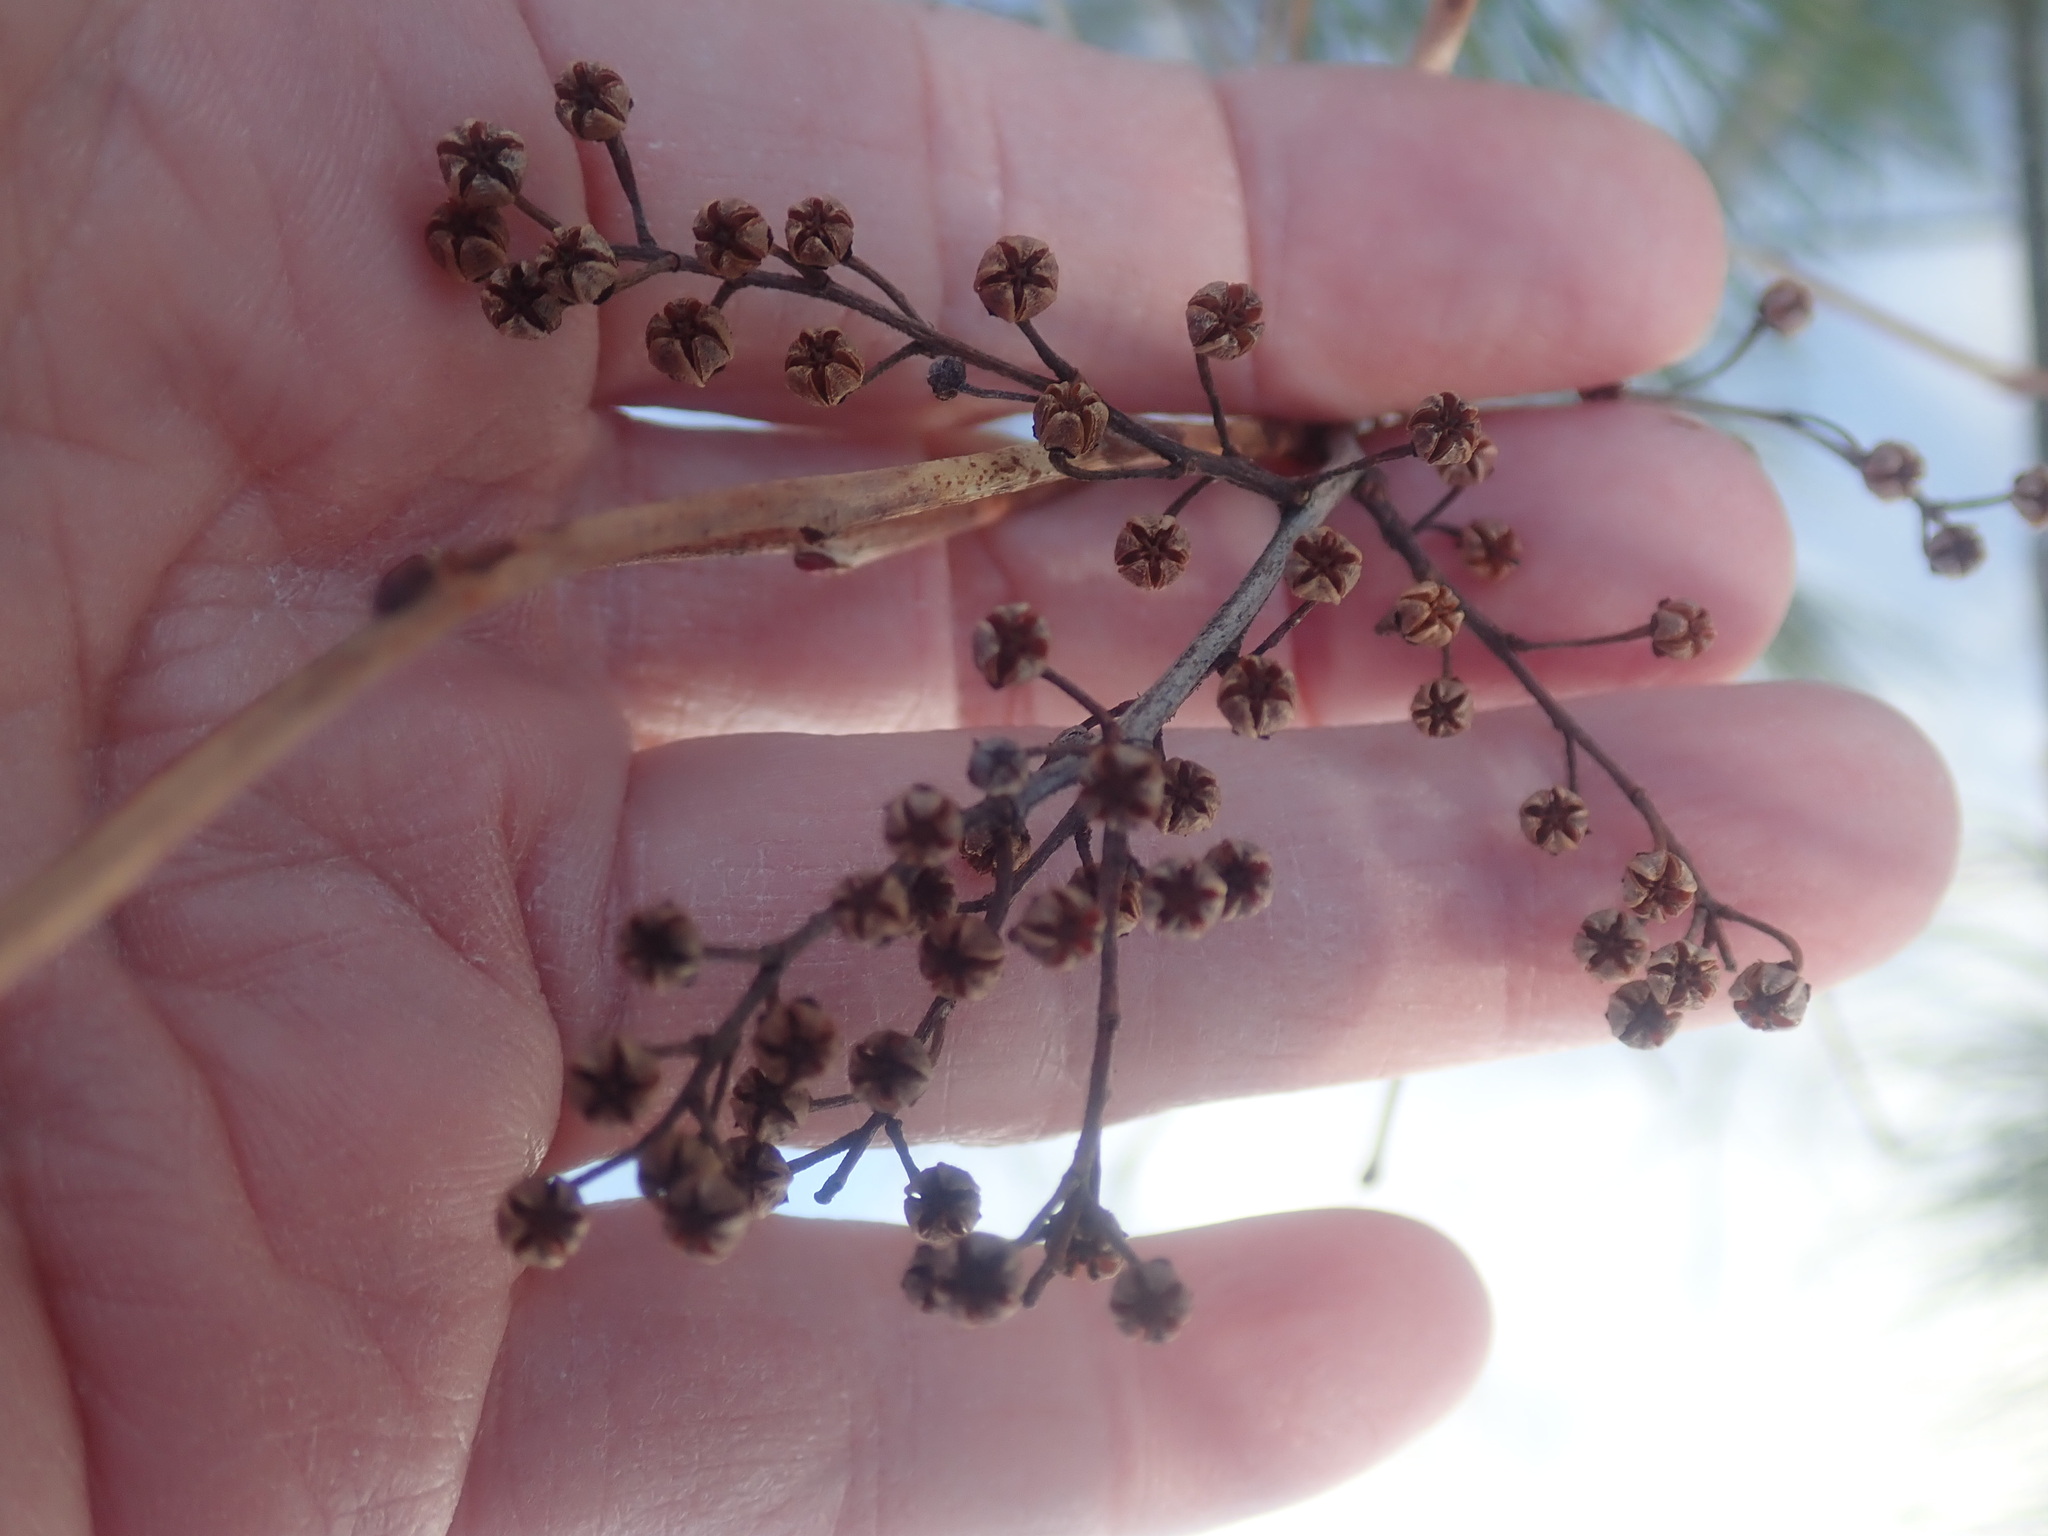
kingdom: Plantae
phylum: Tracheophyta
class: Magnoliopsida
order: Ericales
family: Ericaceae
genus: Lyonia
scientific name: Lyonia ligustrina
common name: Maleberry
